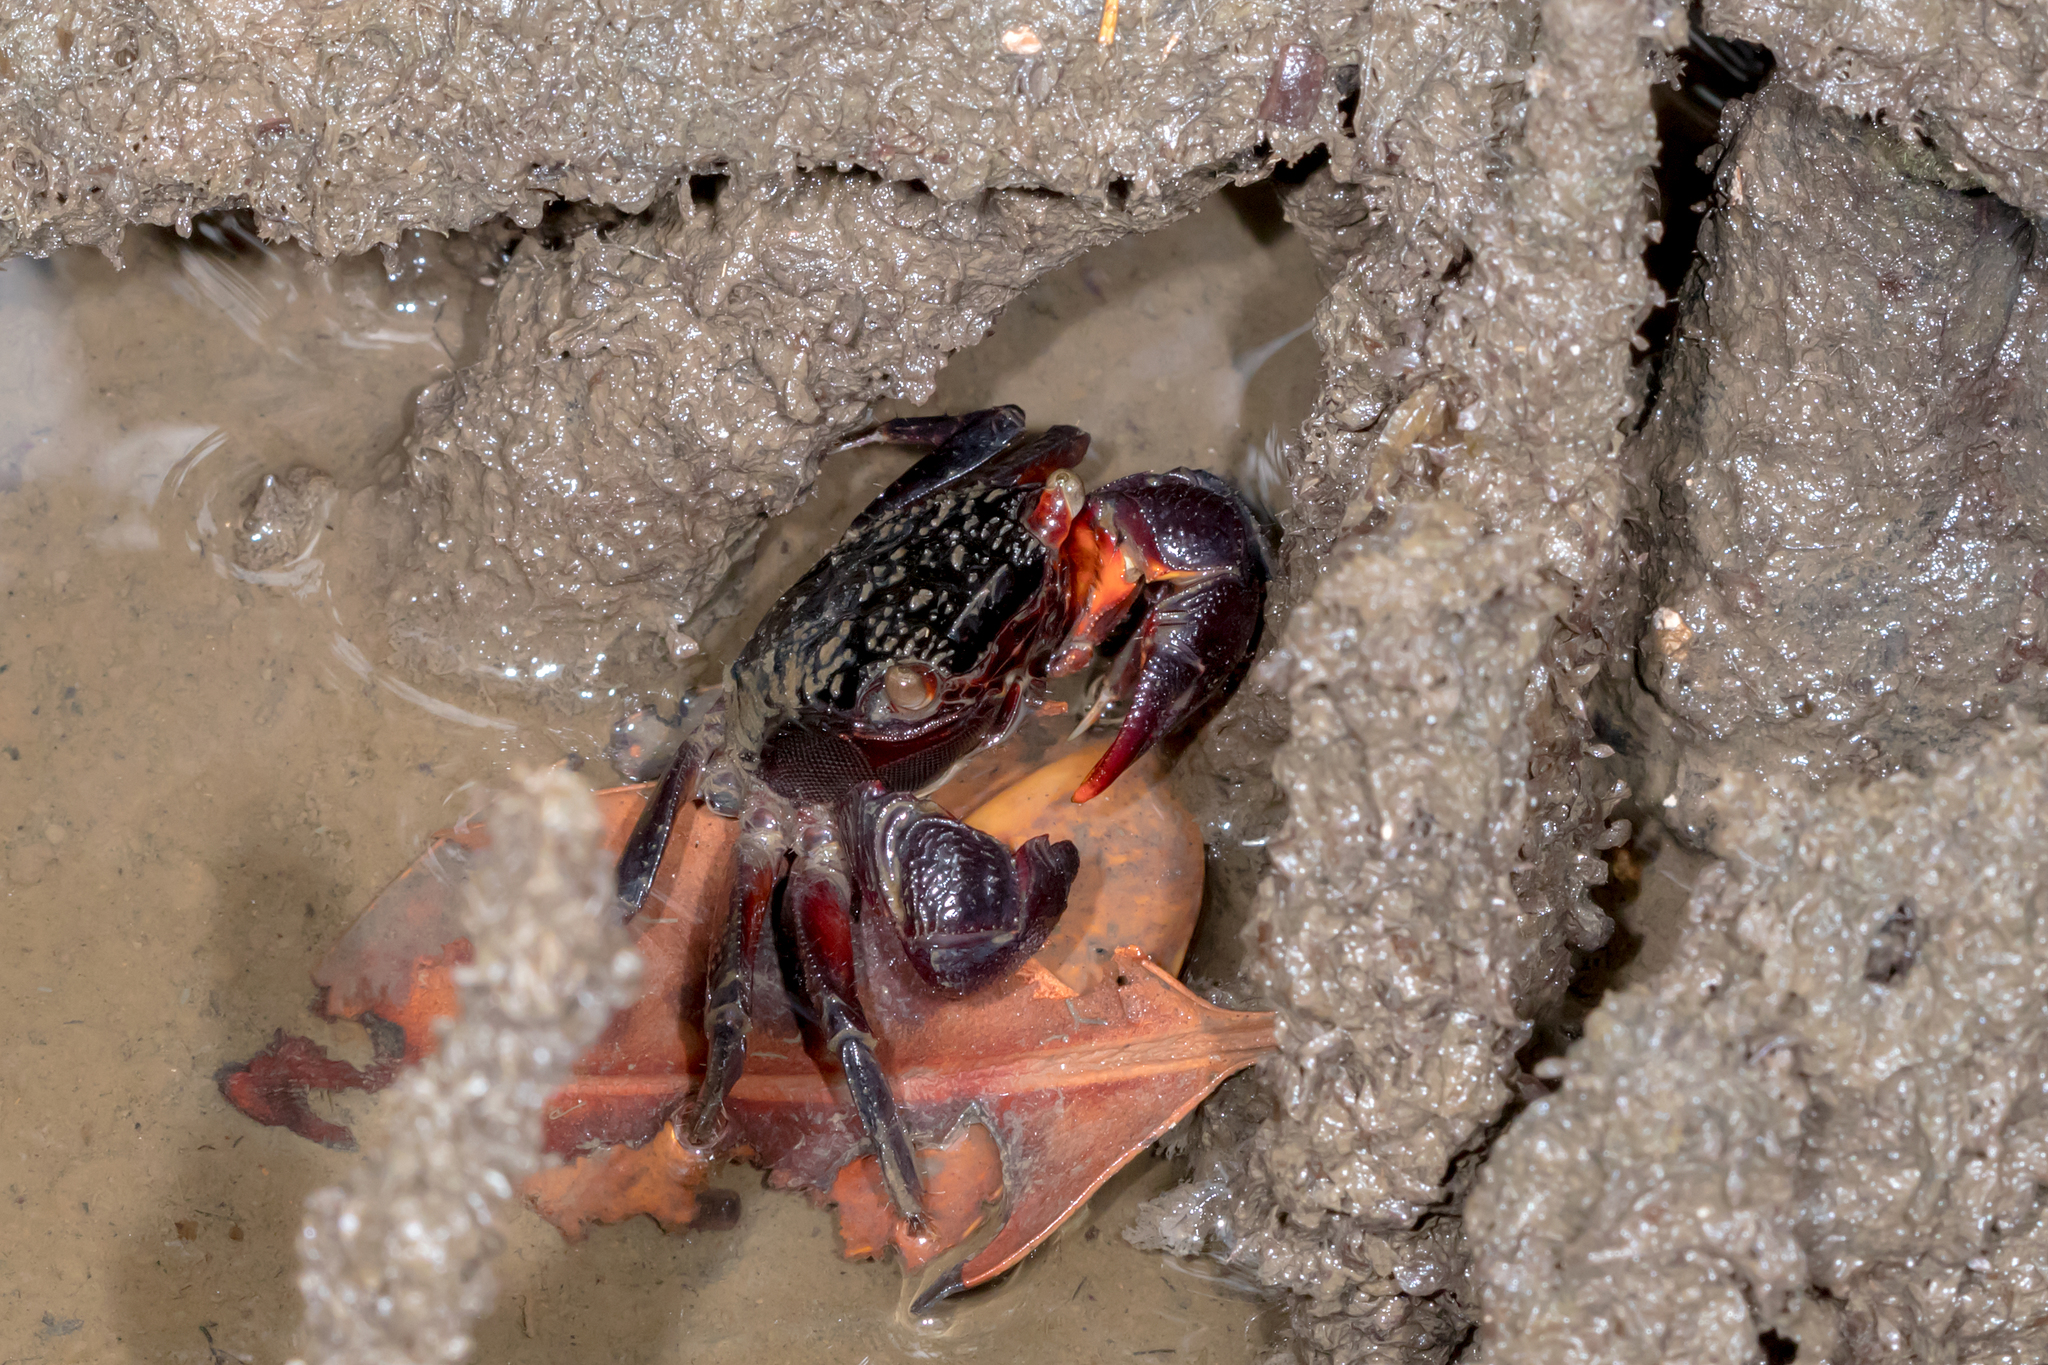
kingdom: Animalia
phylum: Arthropoda
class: Malacostraca
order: Decapoda
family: Sesarmidae
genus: Parasesarma
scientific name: Parasesarma messa
